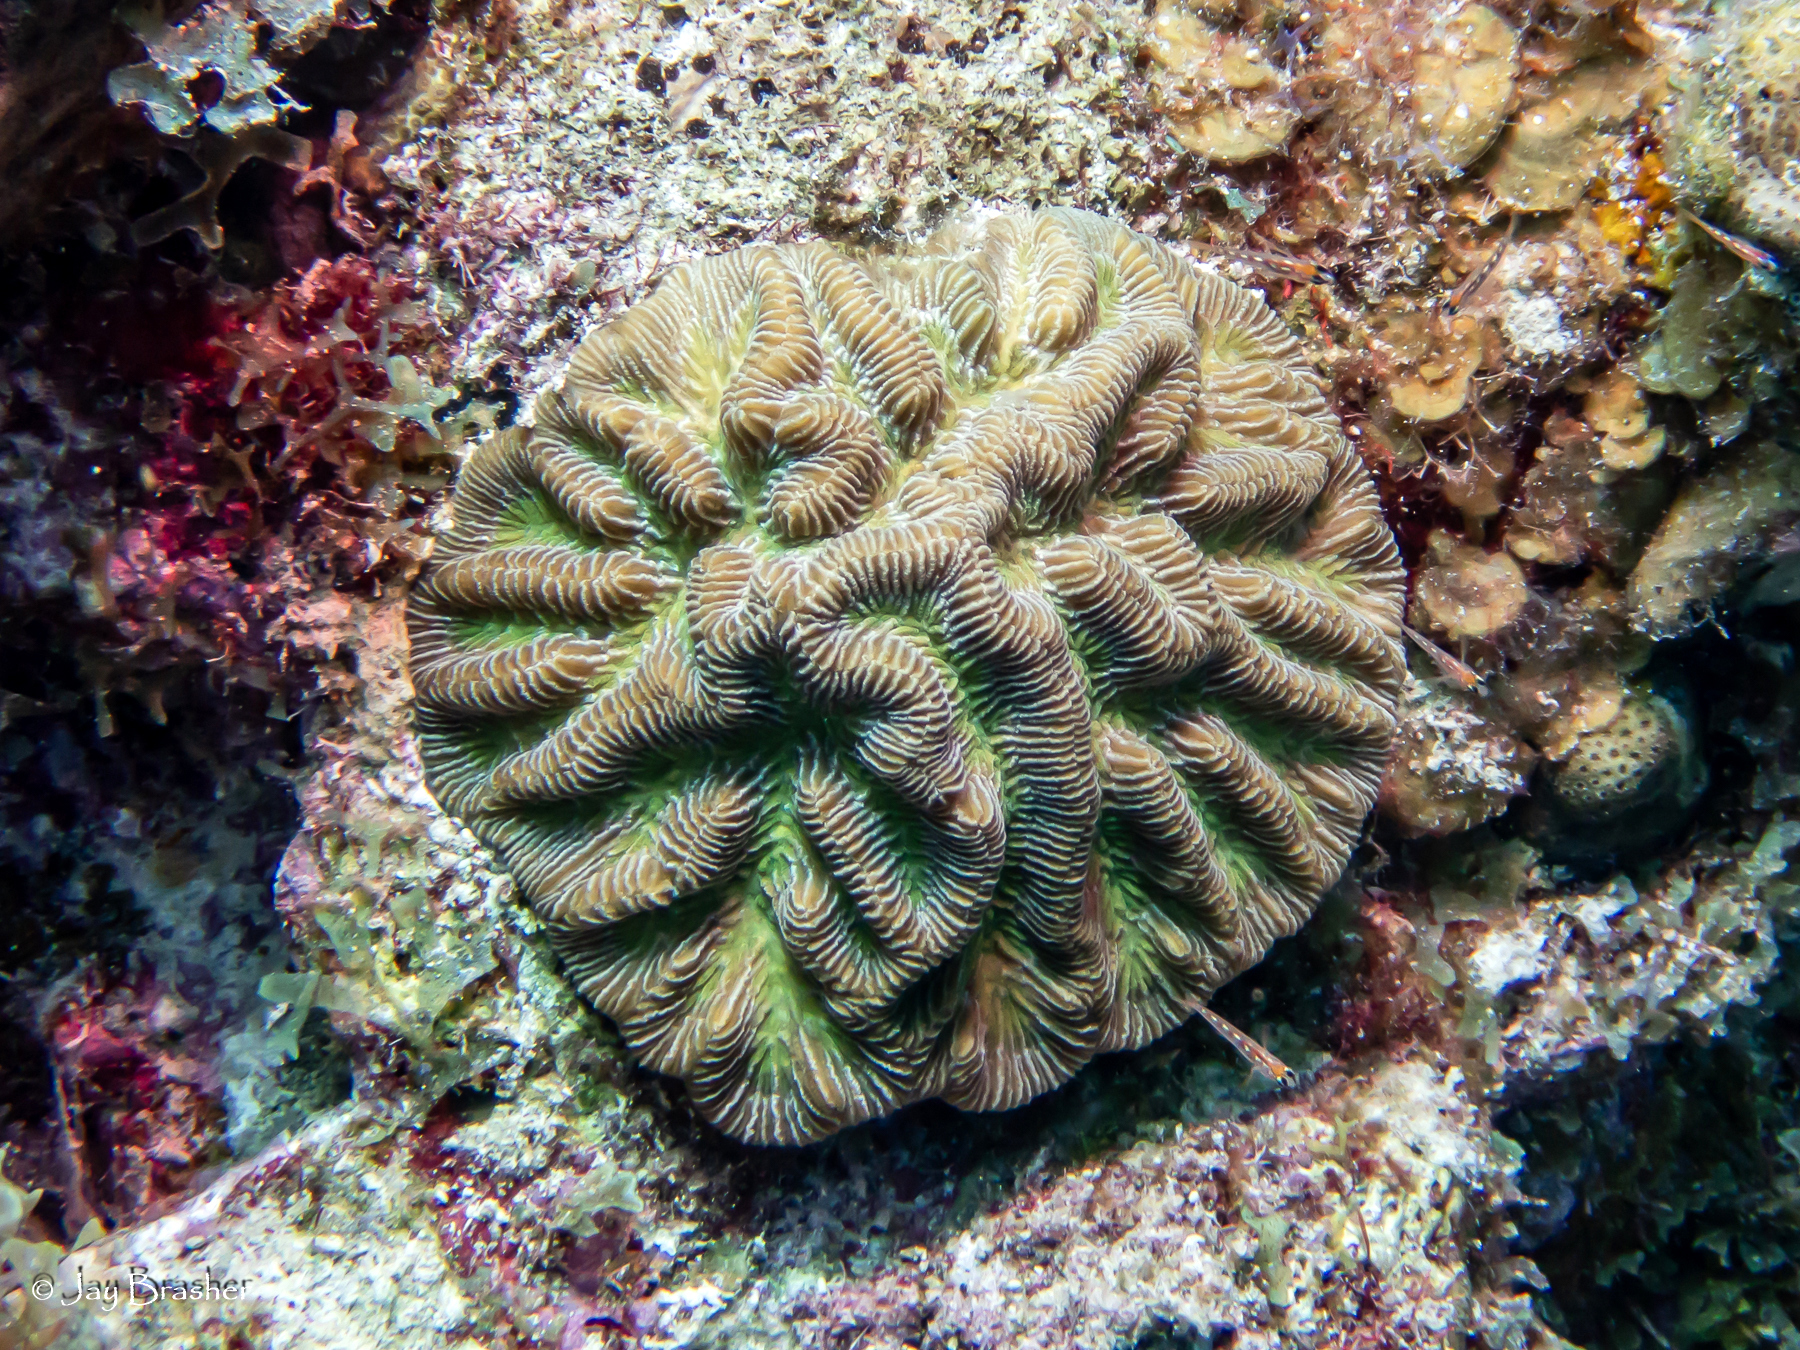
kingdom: Animalia
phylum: Cnidaria
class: Anthozoa
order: Scleractinia
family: Faviidae
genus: Colpophyllia
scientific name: Colpophyllia natans
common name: Boulder brain coral
